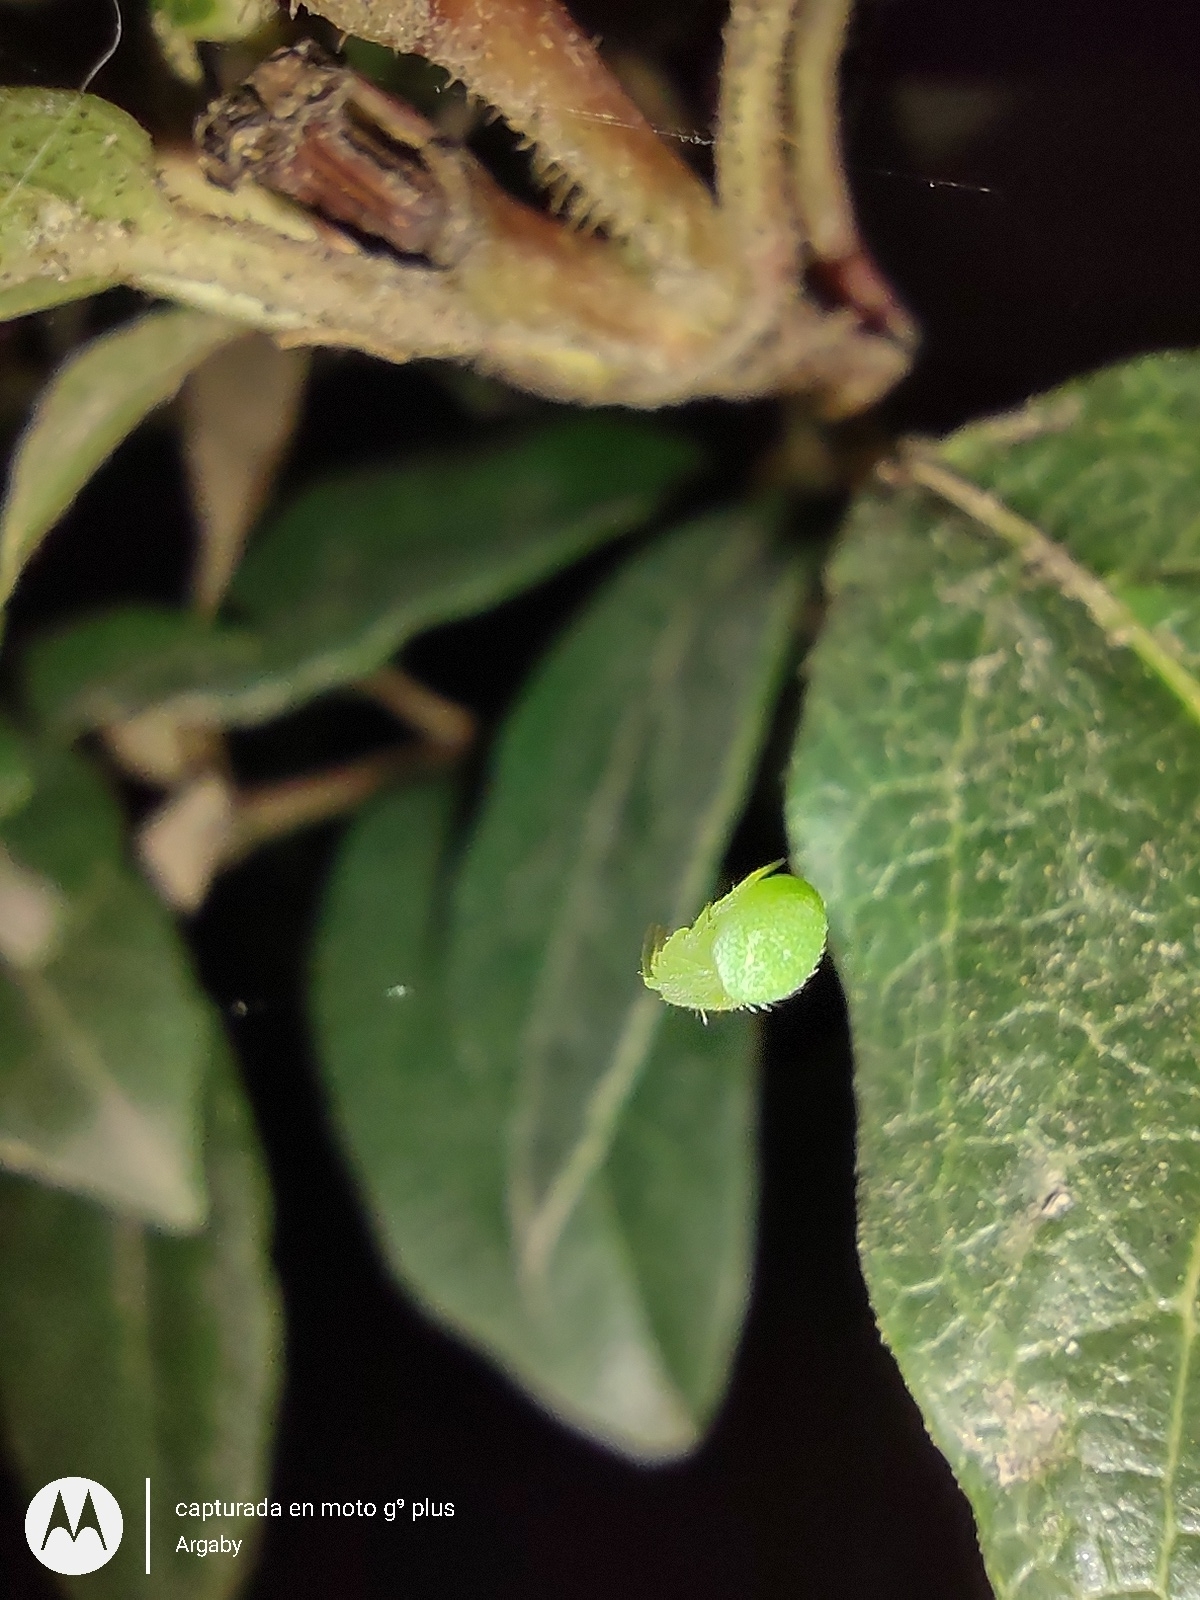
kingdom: Animalia
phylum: Arthropoda
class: Arachnida
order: Araneae
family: Araneidae
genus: Araneus
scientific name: Araneus uniformis
